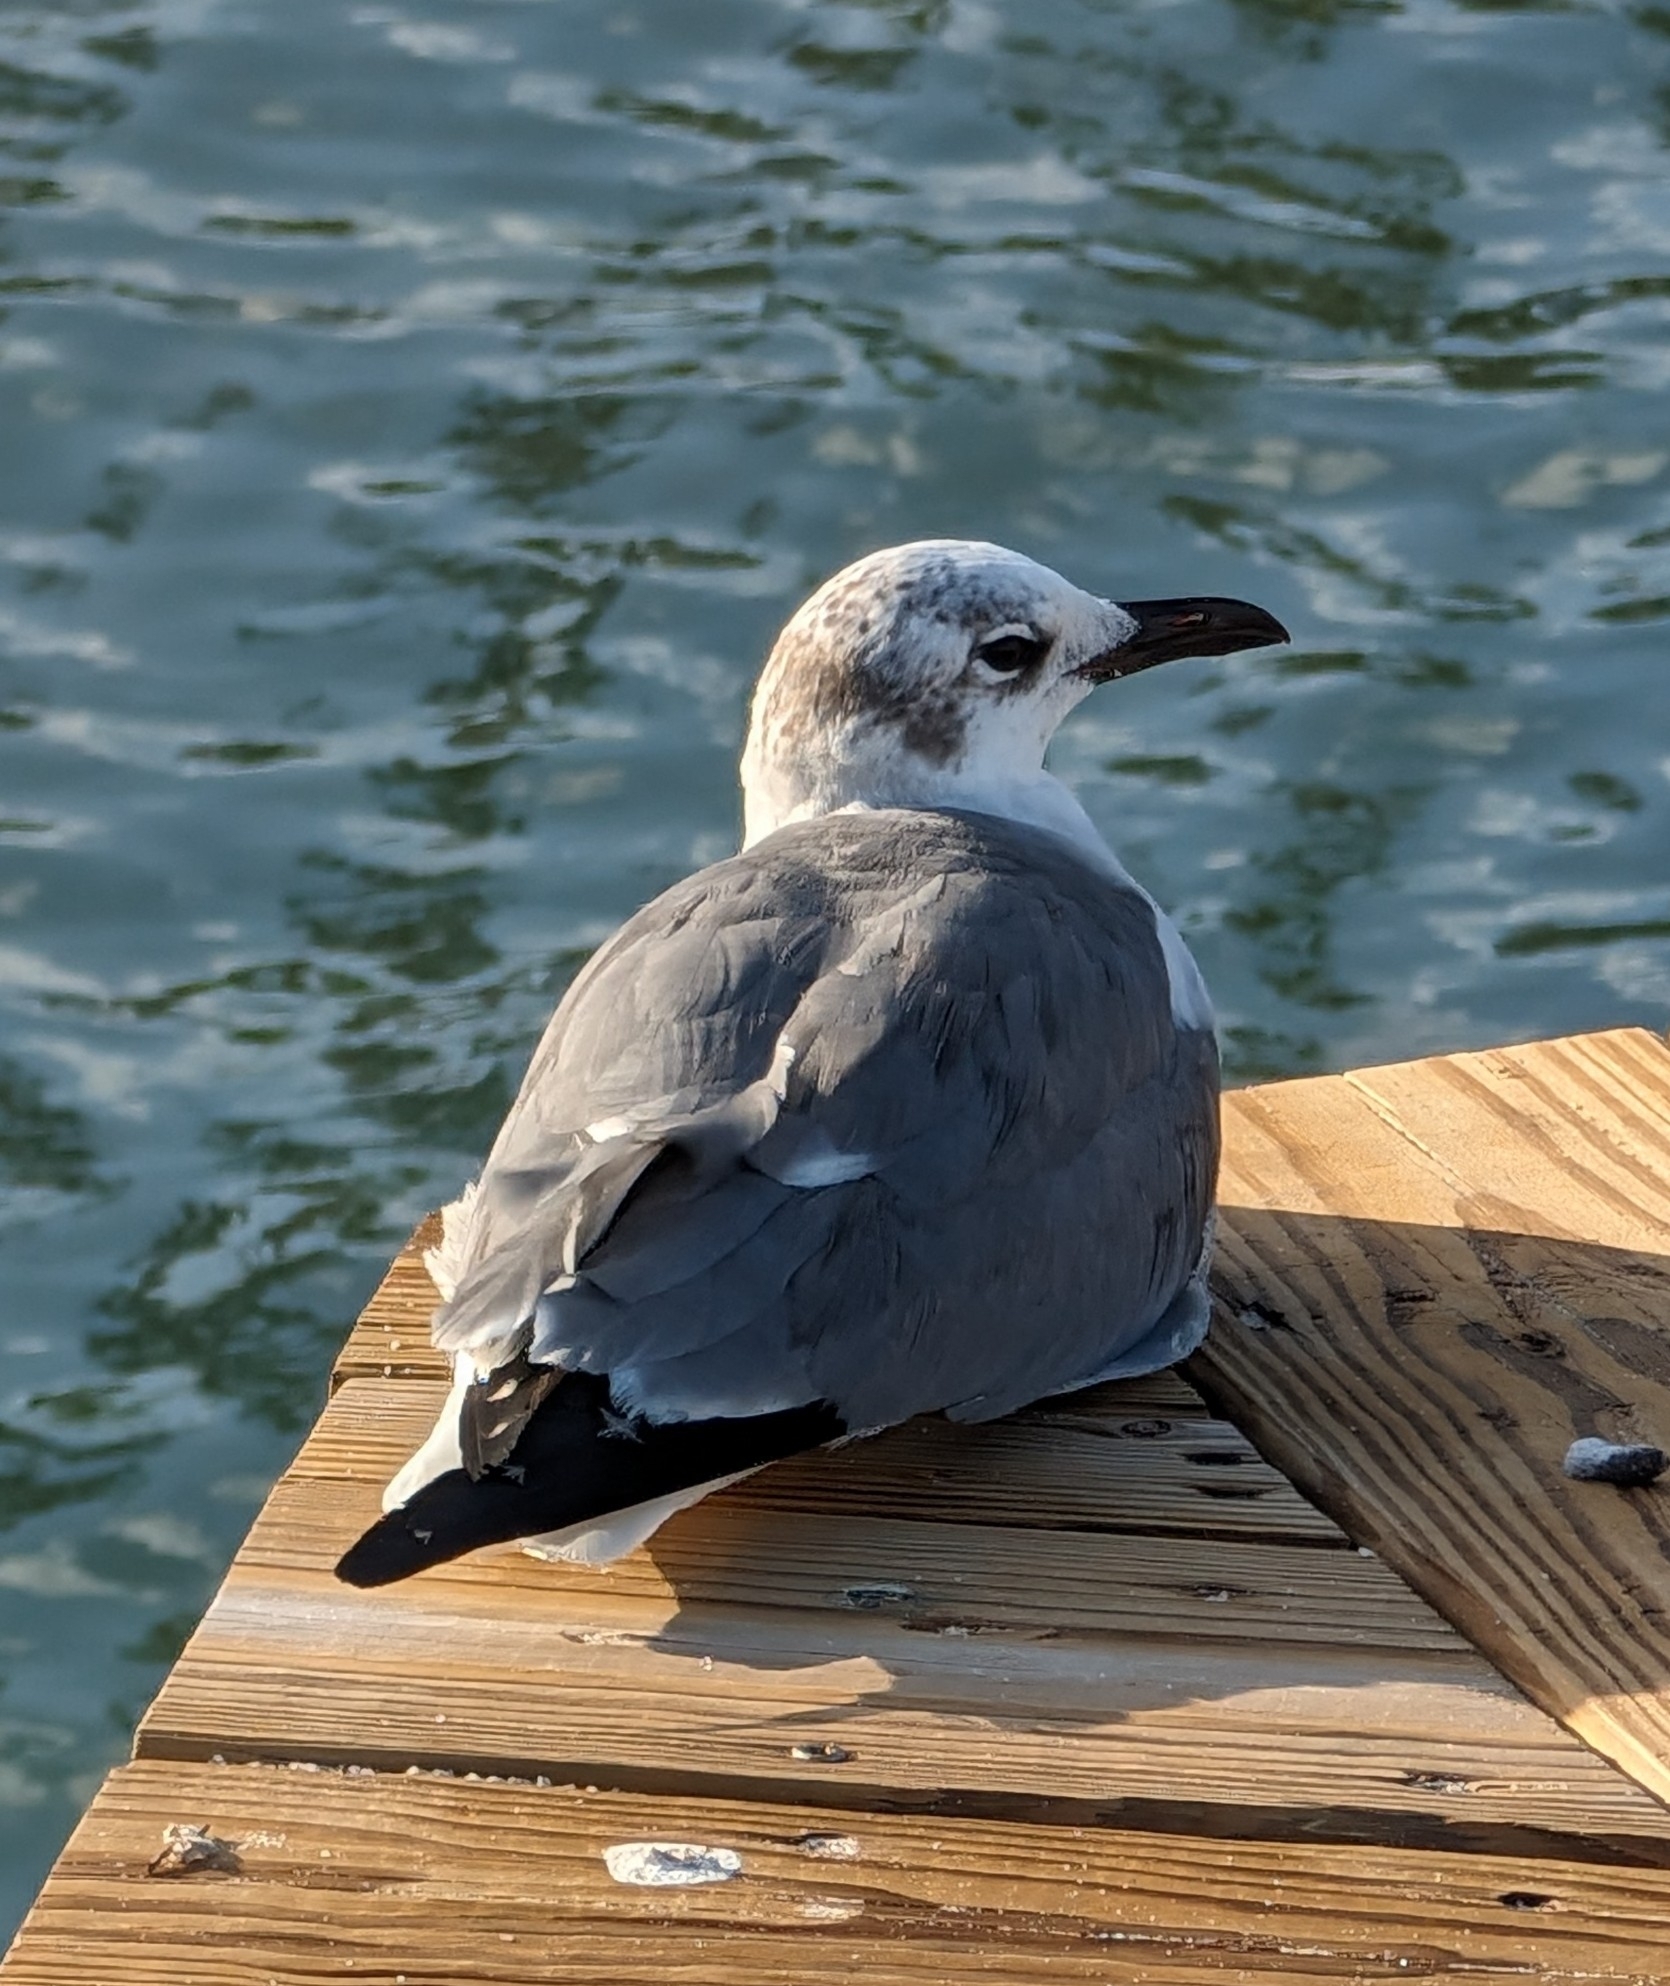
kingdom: Animalia
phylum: Chordata
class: Aves
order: Charadriiformes
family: Laridae
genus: Leucophaeus
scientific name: Leucophaeus atricilla
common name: Laughing gull
